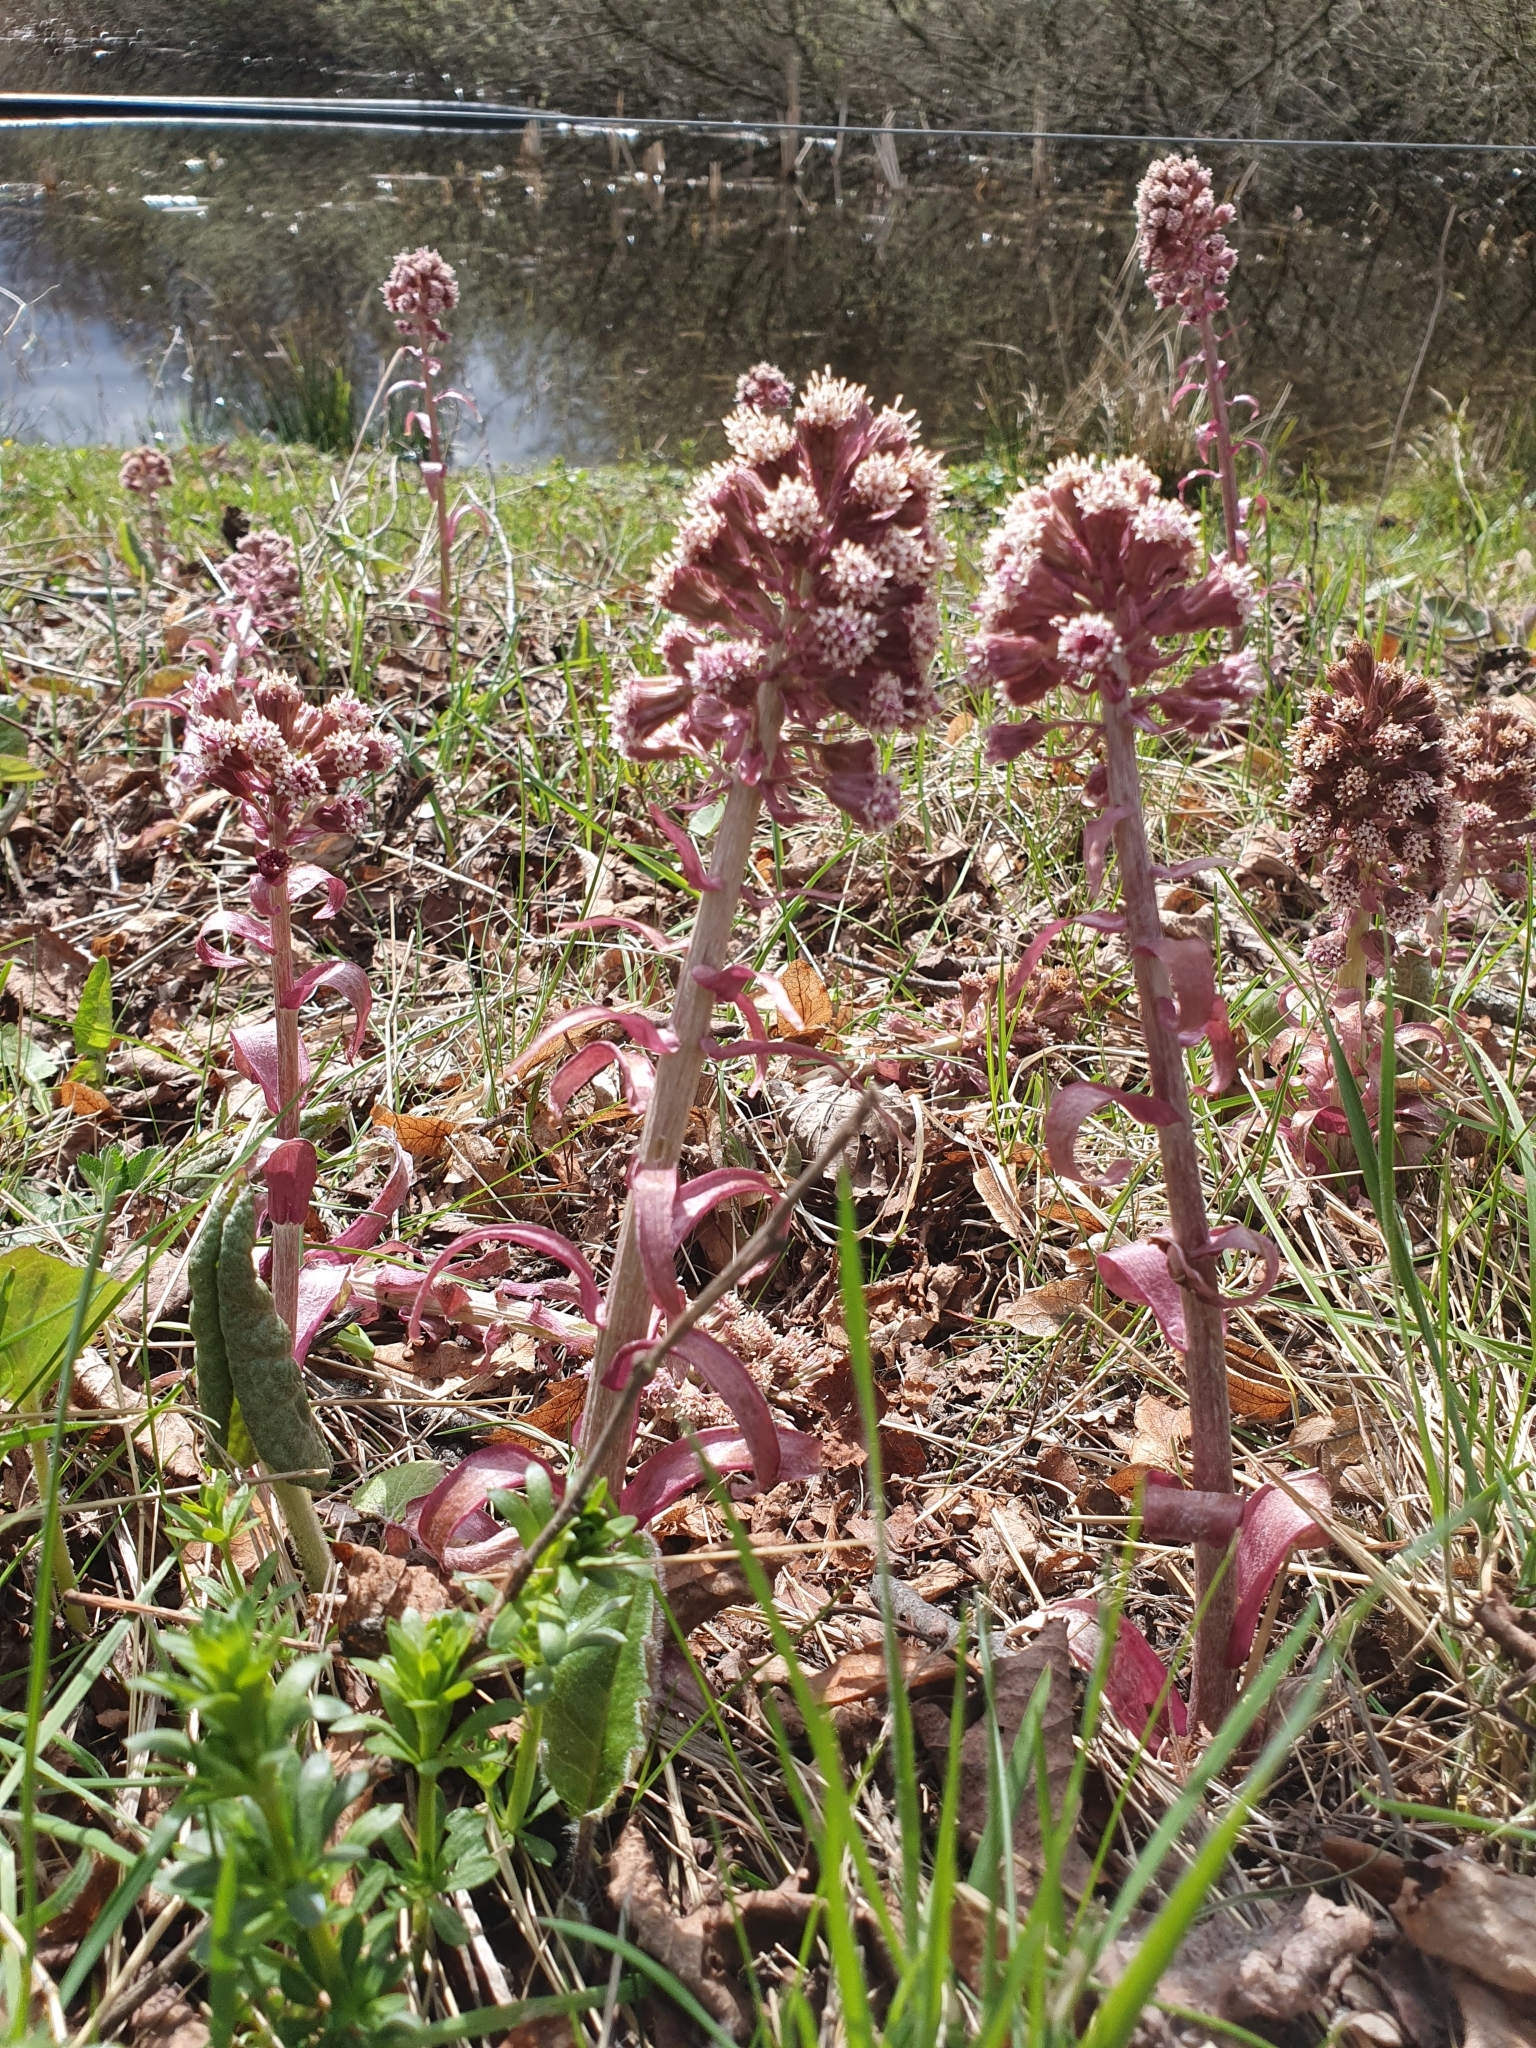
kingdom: Plantae
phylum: Tracheophyta
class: Magnoliopsida
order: Asterales
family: Asteraceae
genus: Petasites
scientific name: Petasites hybridus
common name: Butterbur
